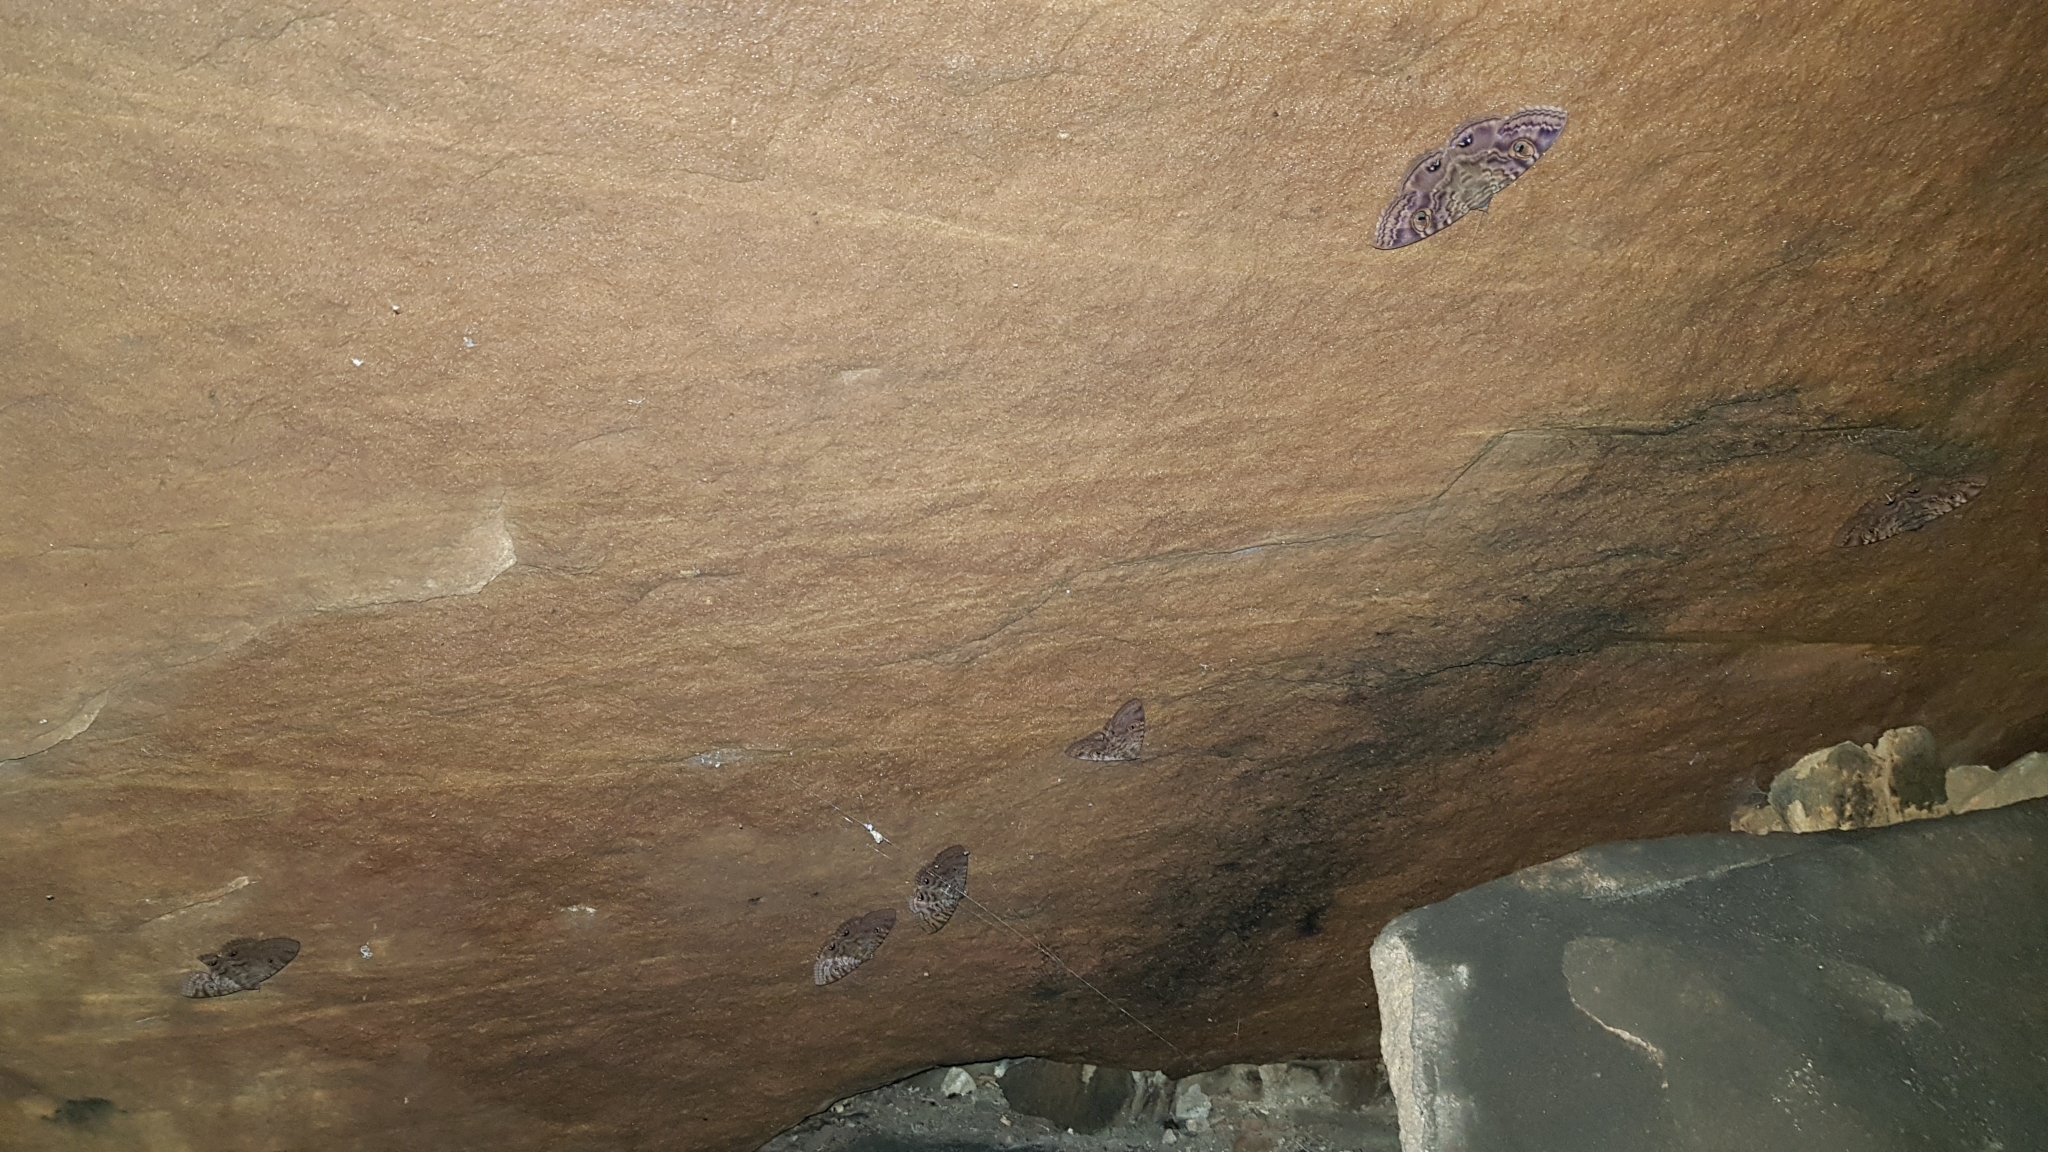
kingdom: Animalia
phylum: Arthropoda
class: Insecta
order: Lepidoptera
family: Erebidae
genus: Speiredonia
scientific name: Speiredonia spectans
